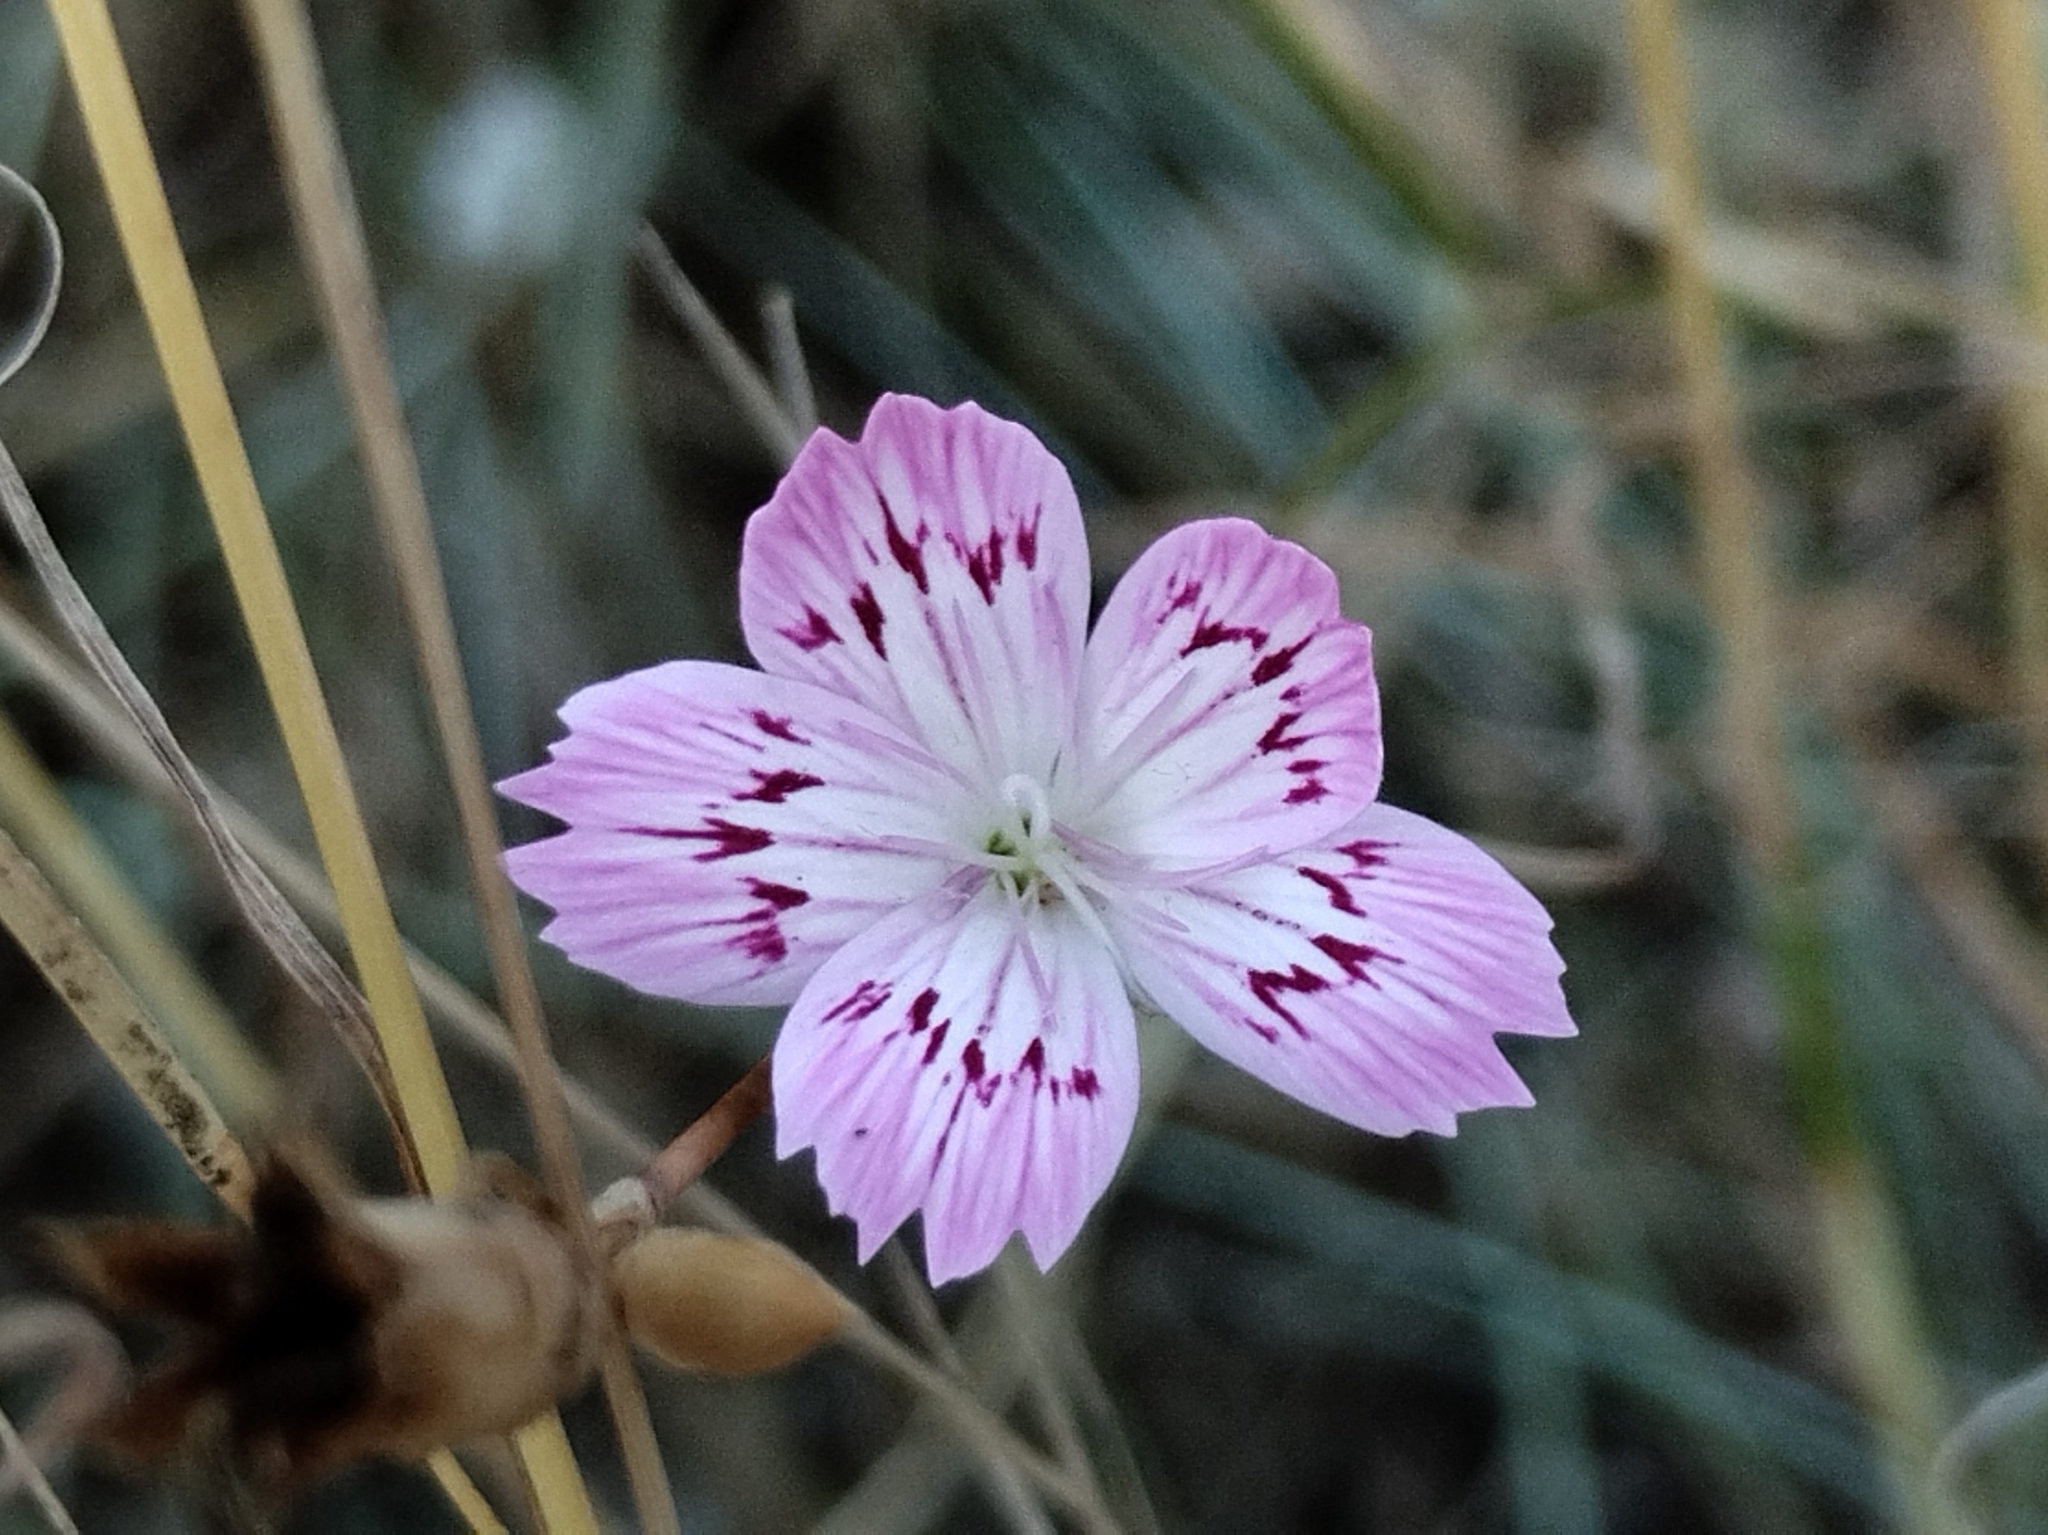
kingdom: Plantae
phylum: Tracheophyta
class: Magnoliopsida
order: Caryophyllales
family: Caryophyllaceae
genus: Dianthus
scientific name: Dianthus strictus
